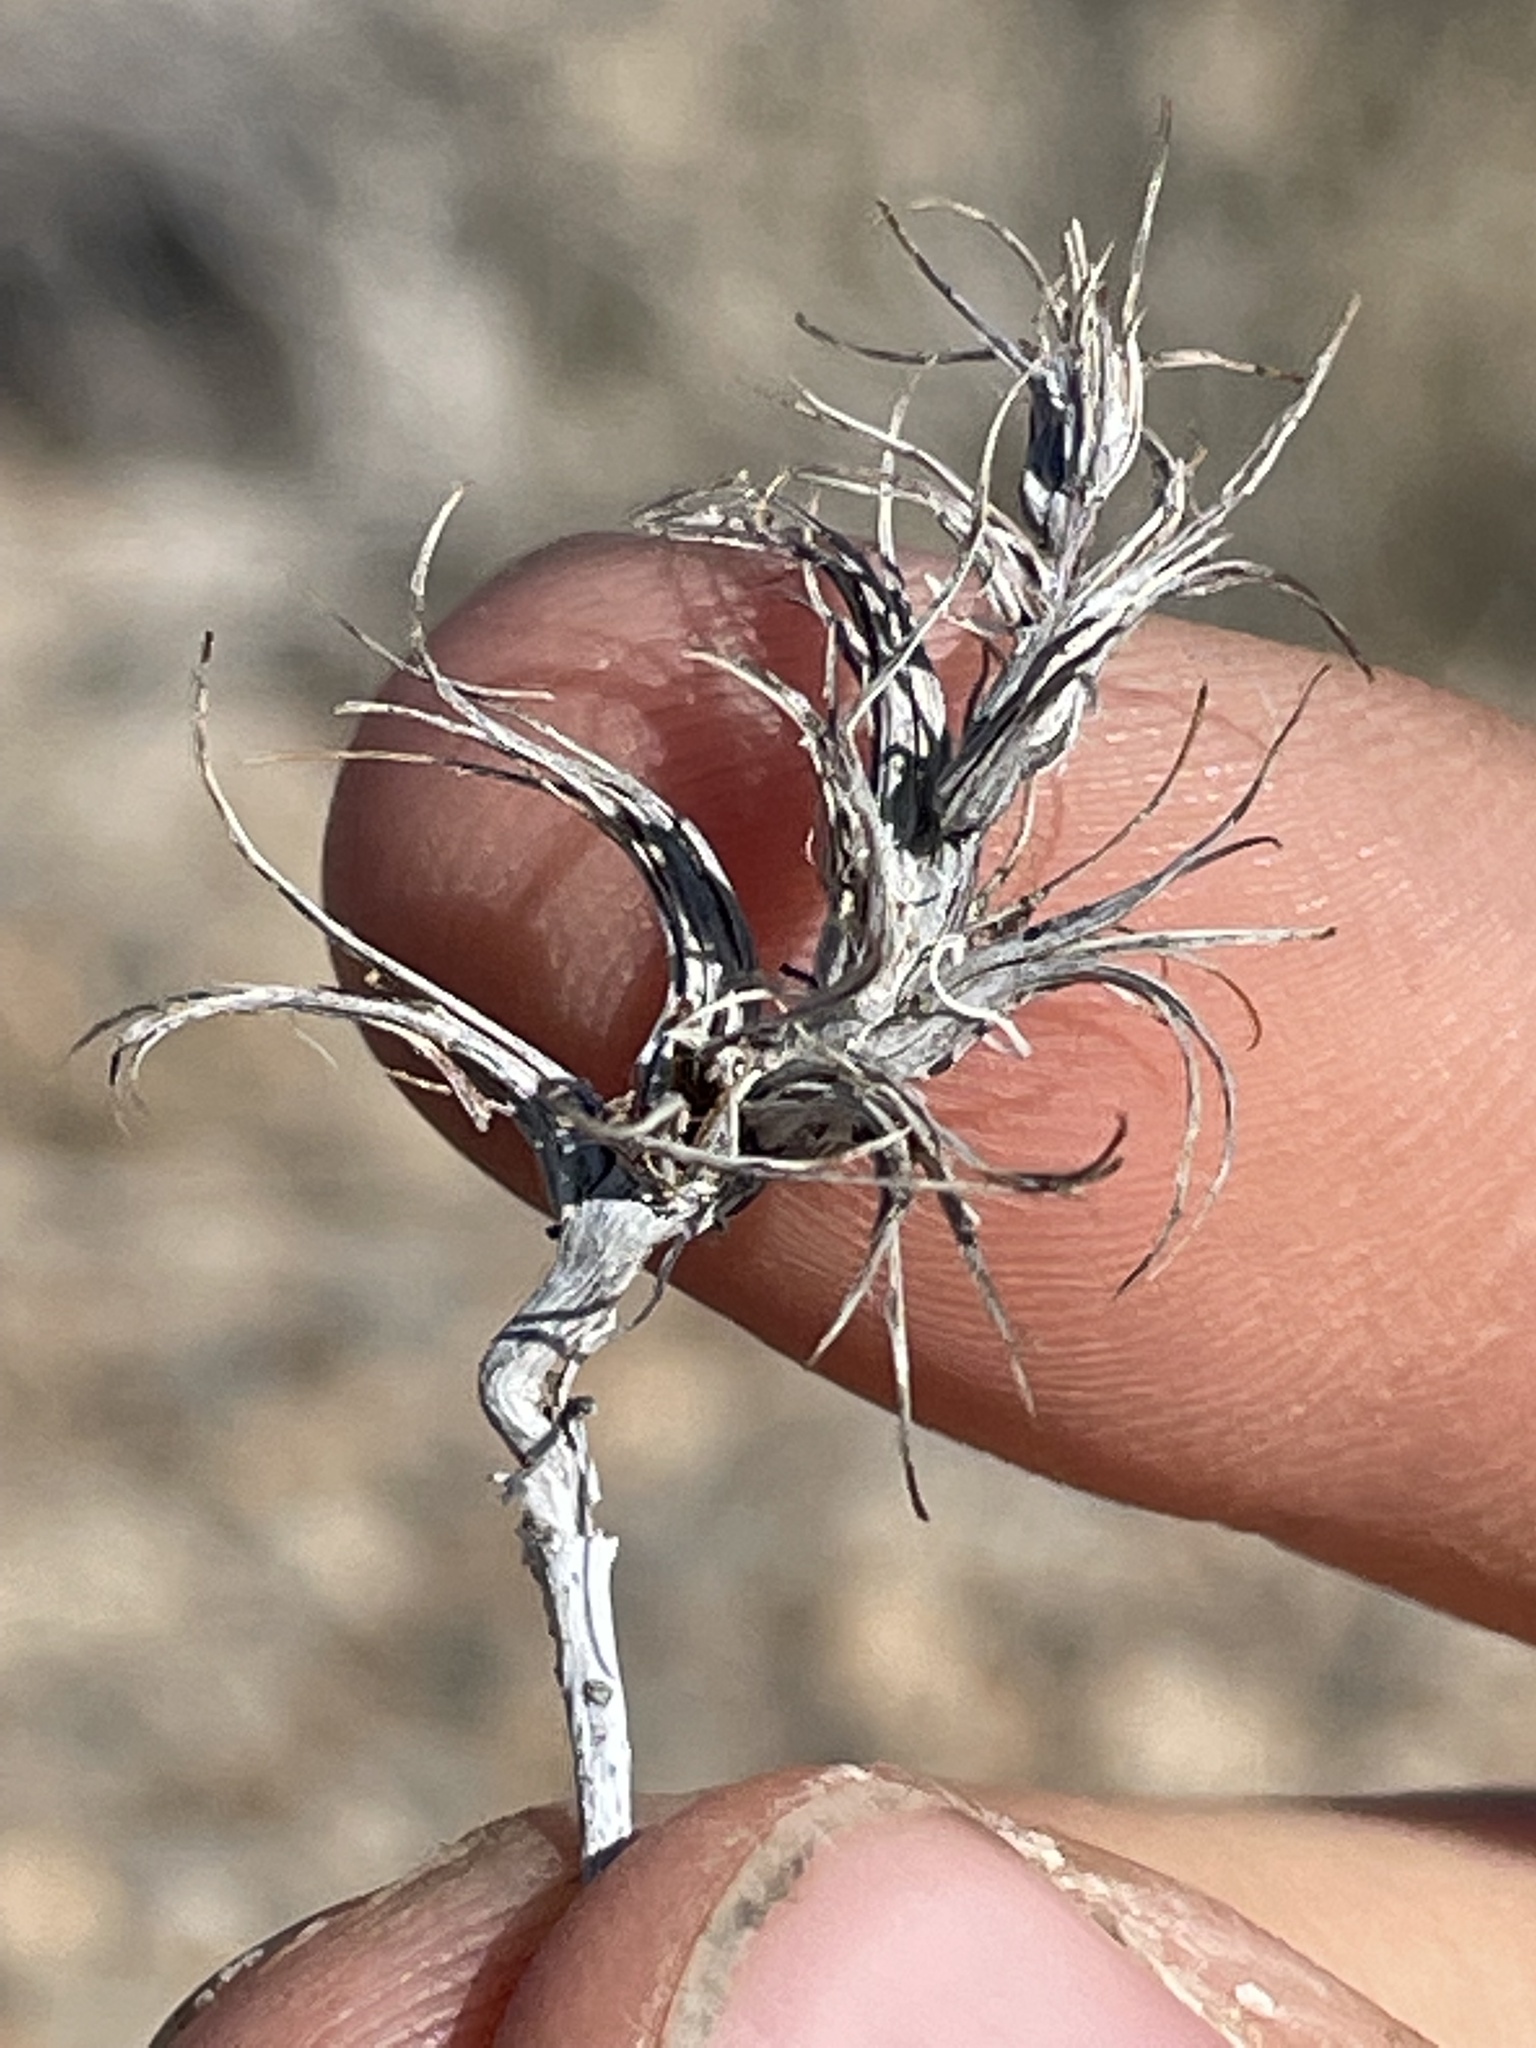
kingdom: Plantae
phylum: Tracheophyta
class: Magnoliopsida
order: Myrtales
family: Onagraceae
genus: Eremothera
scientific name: Eremothera boothii
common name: Booth's evening primrose
